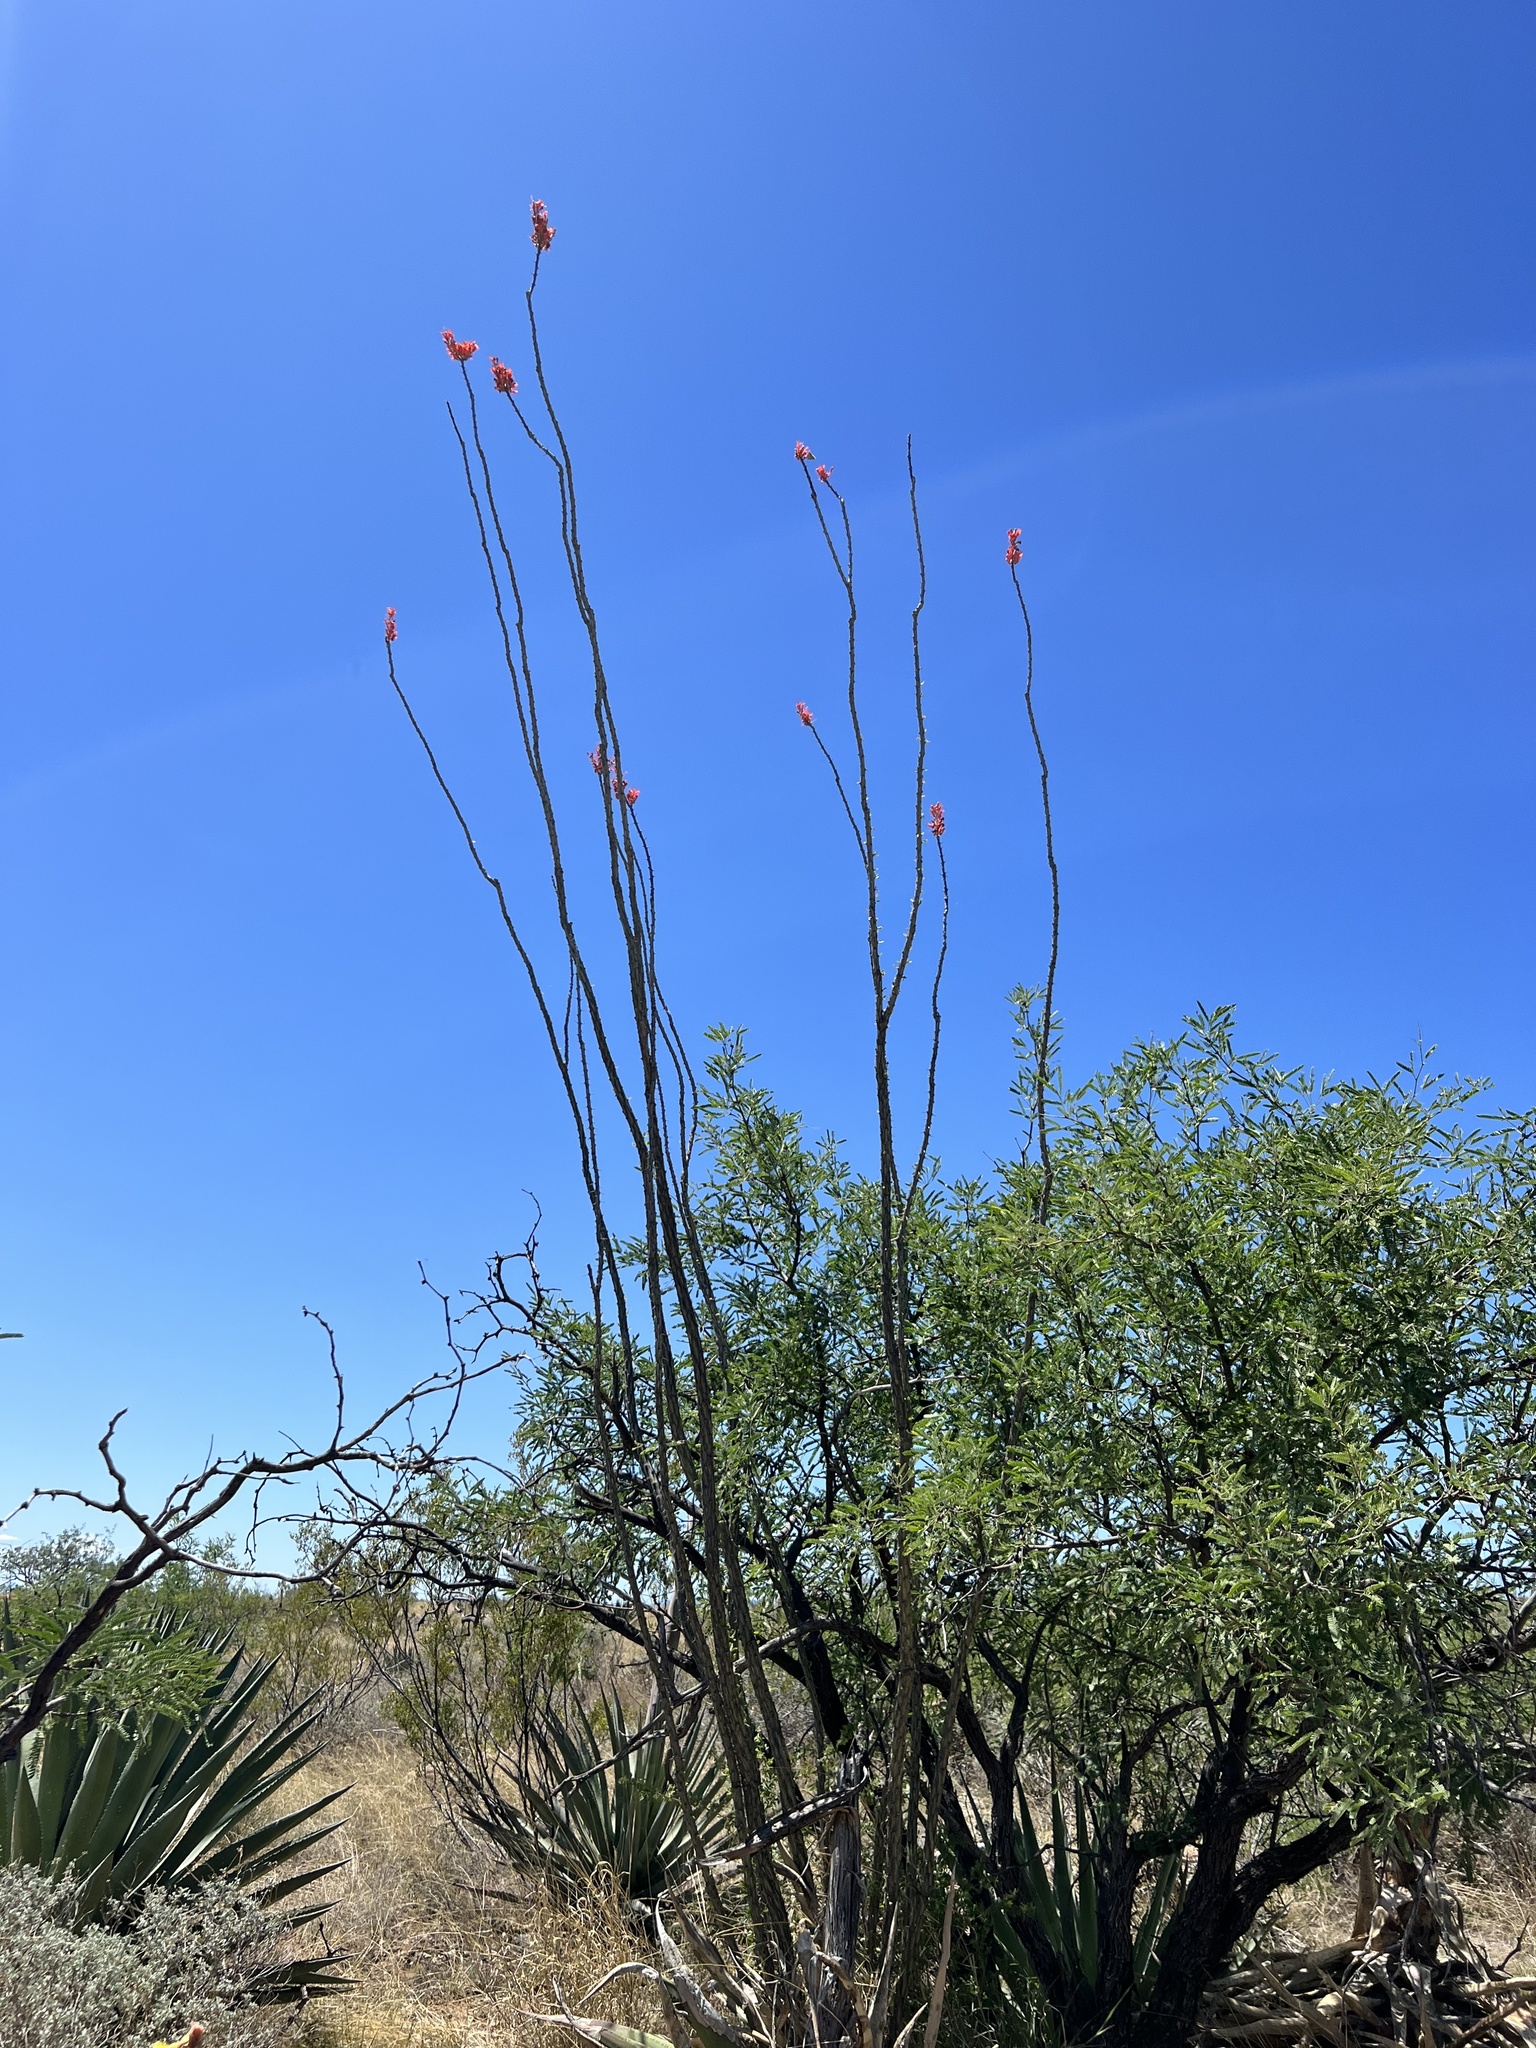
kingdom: Plantae
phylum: Tracheophyta
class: Magnoliopsida
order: Ericales
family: Fouquieriaceae
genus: Fouquieria
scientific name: Fouquieria splendens
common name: Vine-cactus
